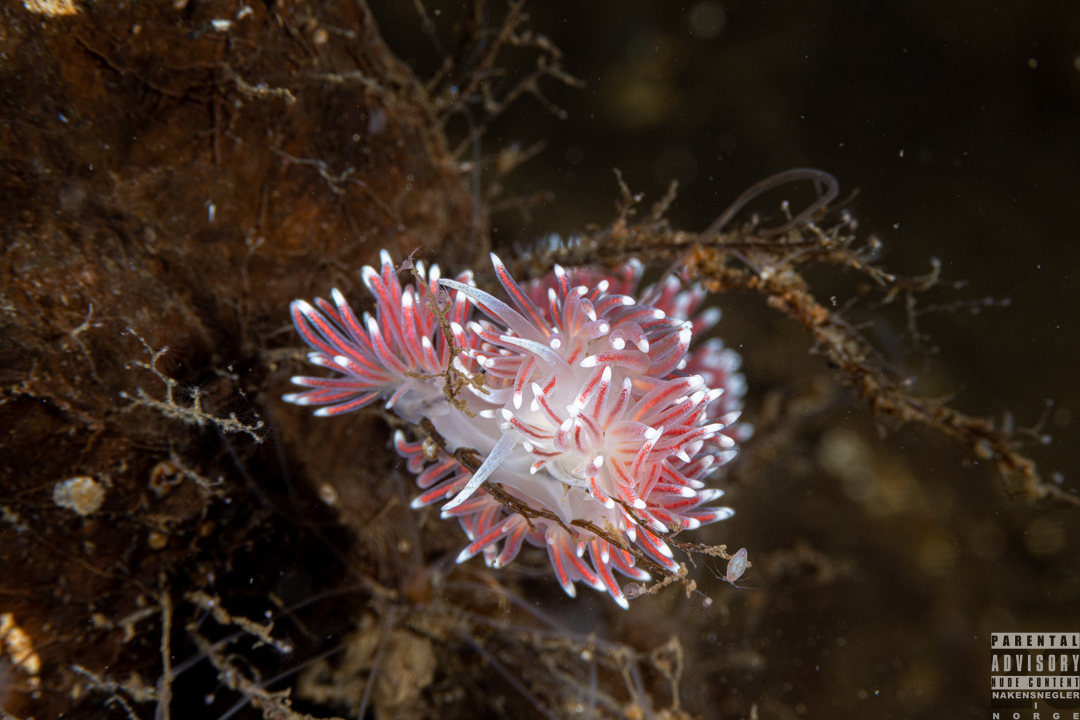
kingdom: Animalia
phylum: Mollusca
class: Gastropoda
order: Nudibranchia
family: Flabellinidae
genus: Carronella
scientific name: Carronella pellucida
